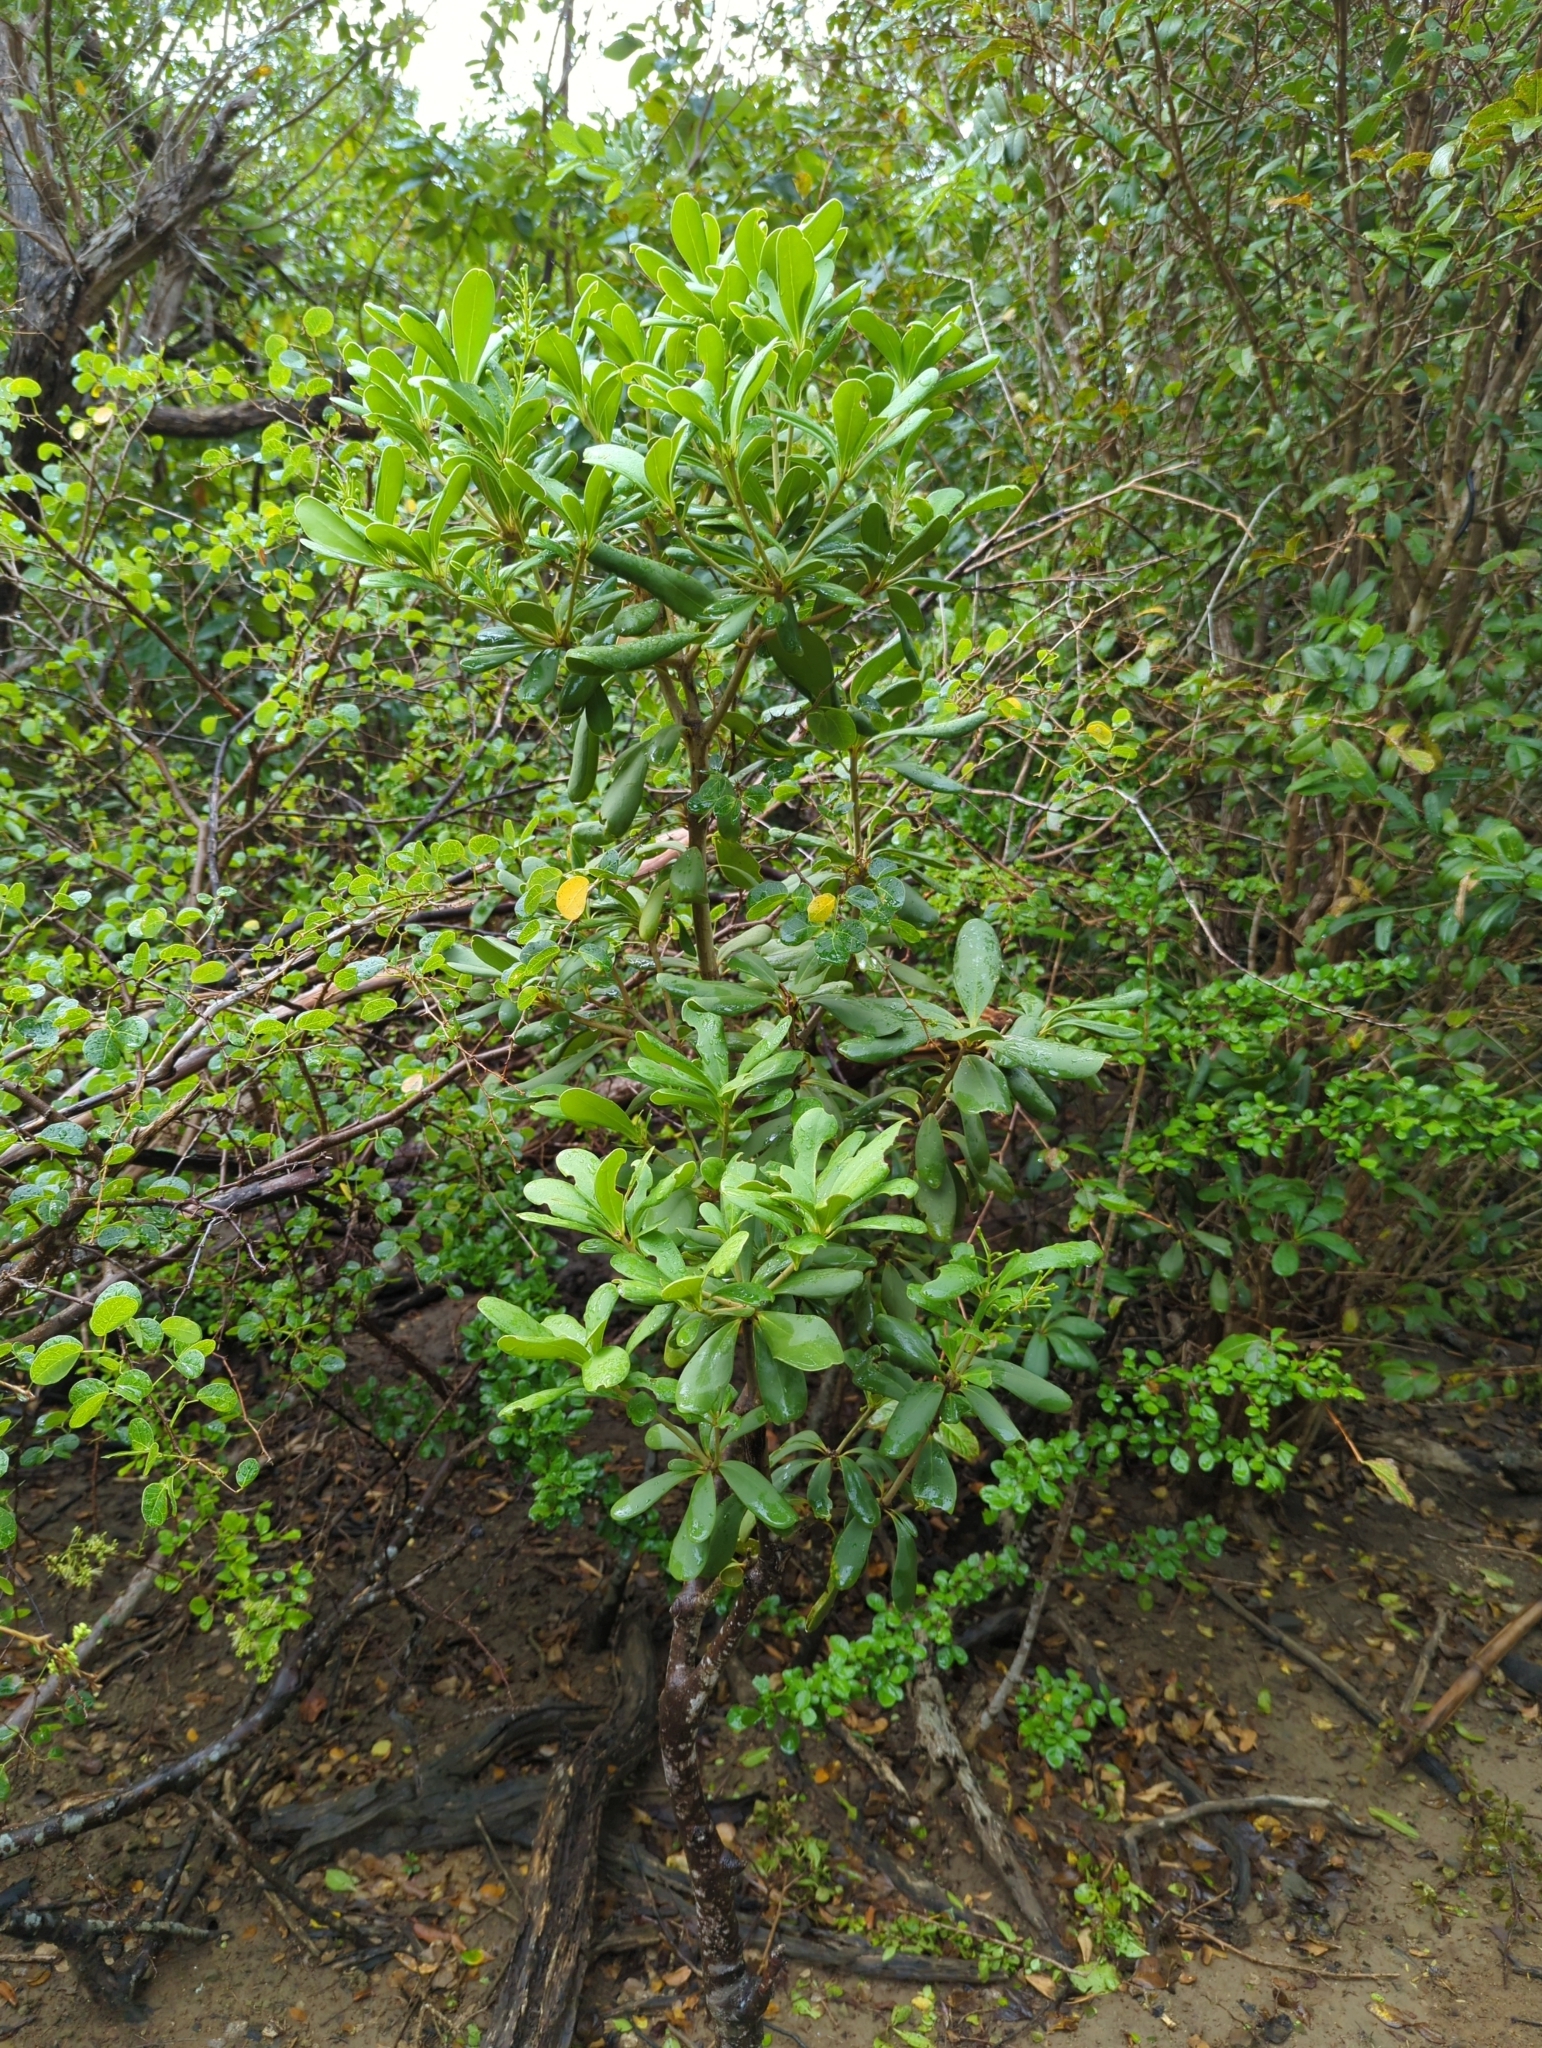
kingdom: Plantae
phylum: Tracheophyta
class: Magnoliopsida
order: Ericales
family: Primulaceae
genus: Jacquinia
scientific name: Jacquinia arborea
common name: Barceletwood
